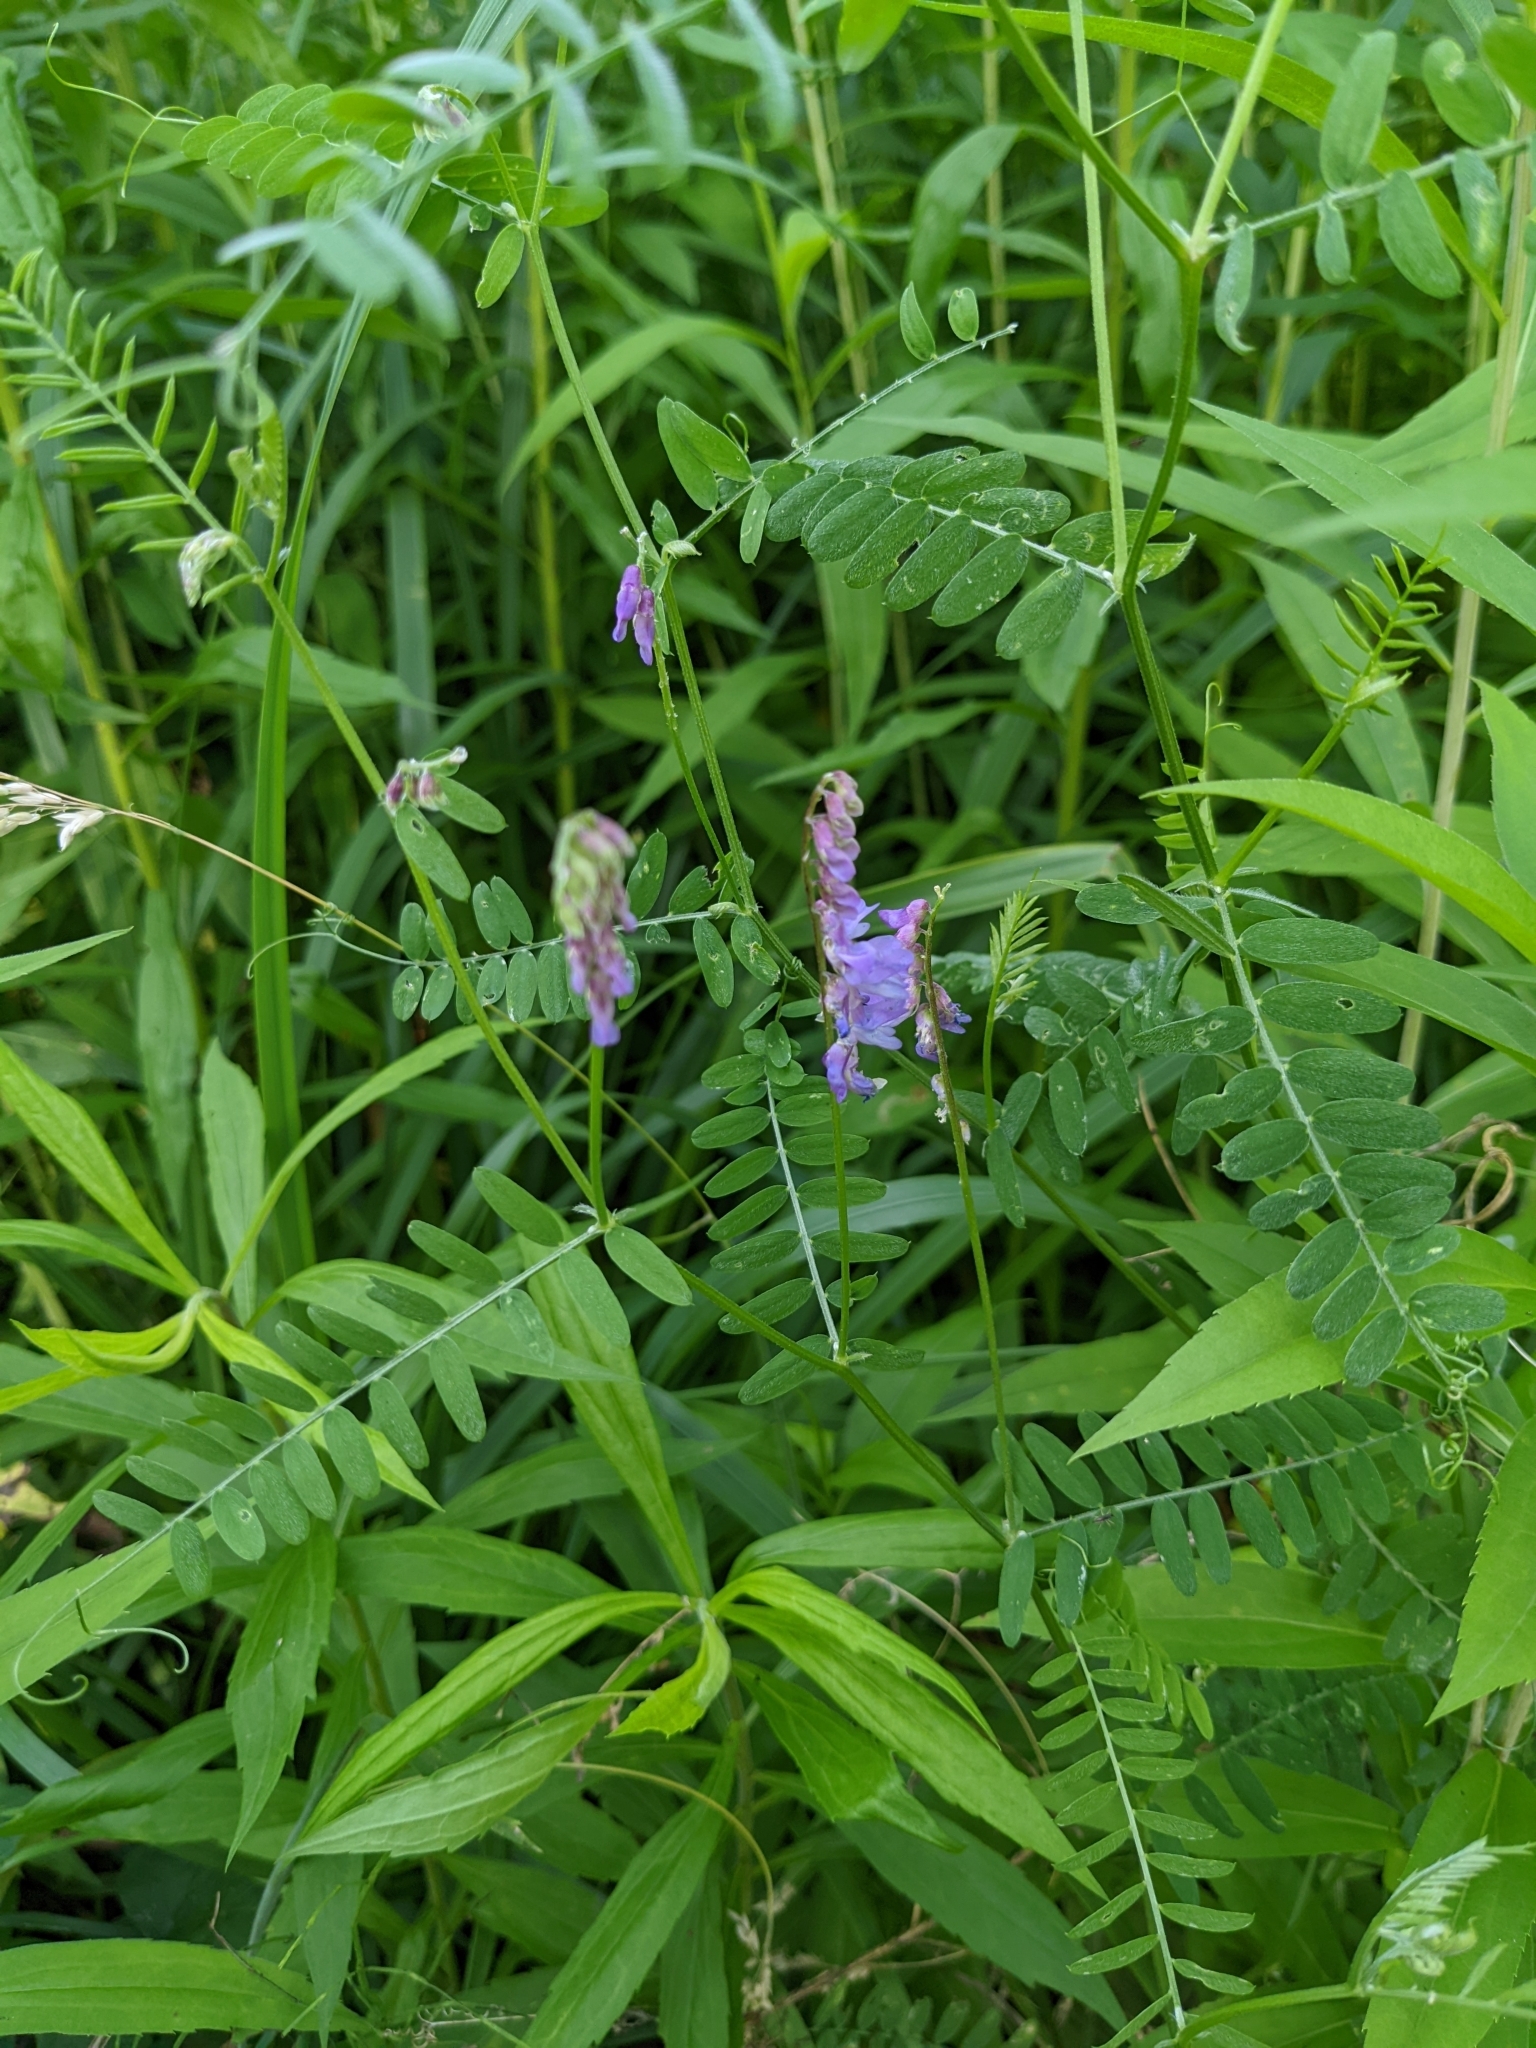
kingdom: Plantae
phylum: Tracheophyta
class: Magnoliopsida
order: Fabales
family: Fabaceae
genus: Vicia
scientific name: Vicia cracca
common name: Bird vetch
